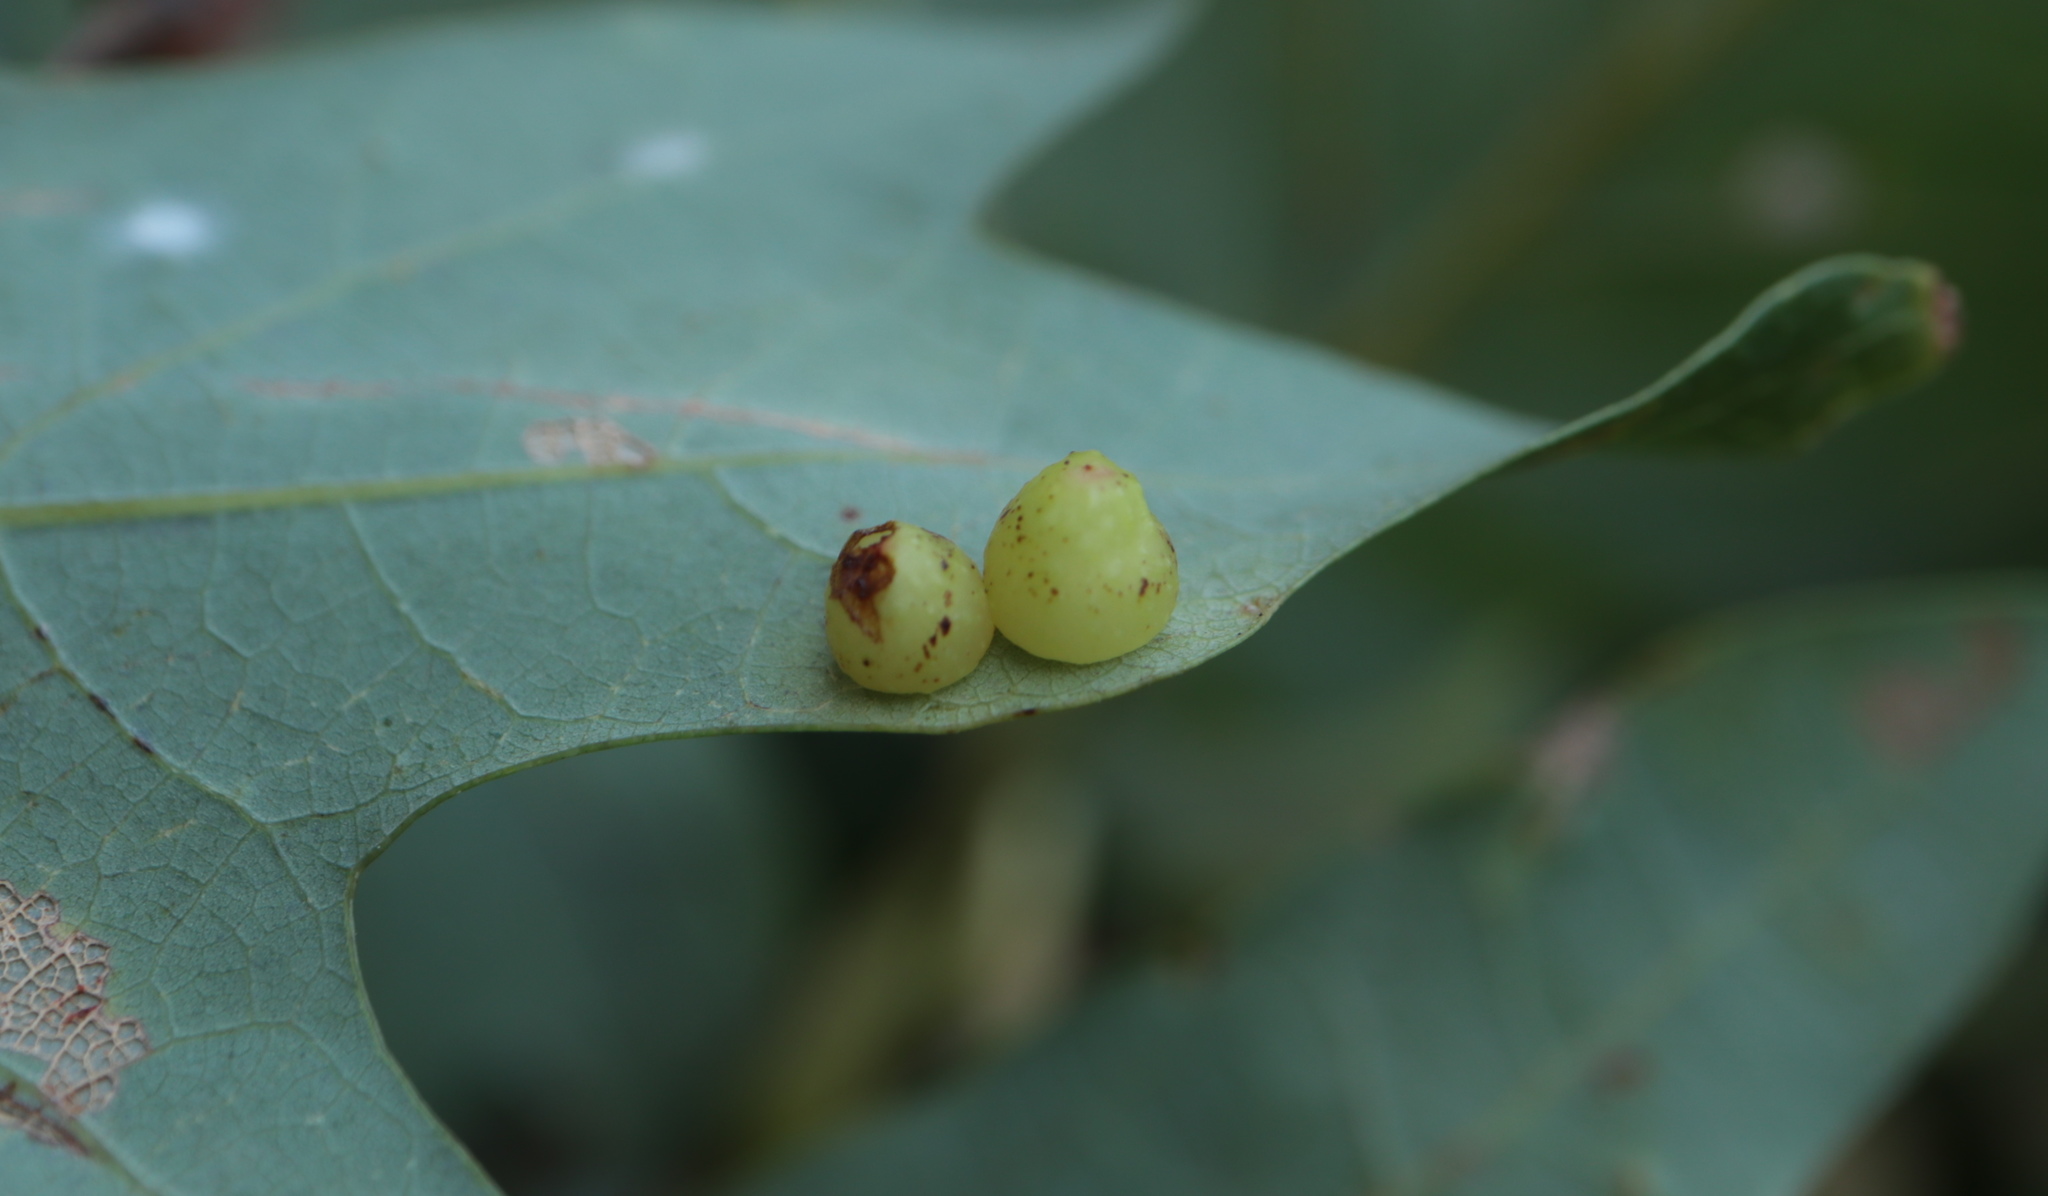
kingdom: Animalia
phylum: Arthropoda
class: Insecta
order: Hymenoptera
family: Cynipidae
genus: Andricus
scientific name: Andricus
